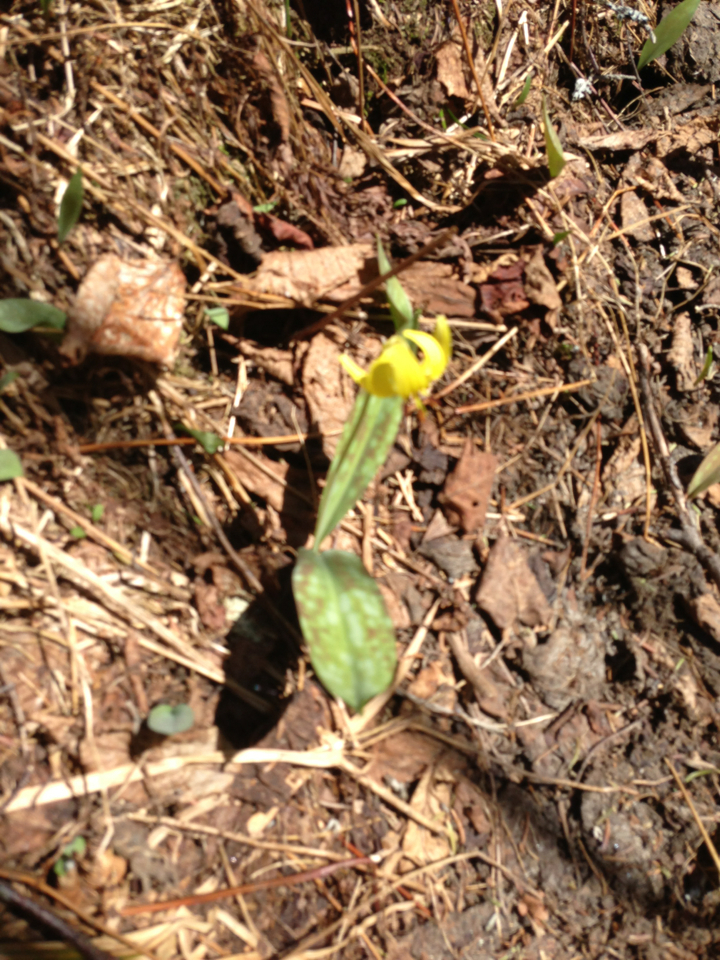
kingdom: Plantae
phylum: Tracheophyta
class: Liliopsida
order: Liliales
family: Liliaceae
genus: Erythronium
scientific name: Erythronium americanum
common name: Yellow adder's-tongue
